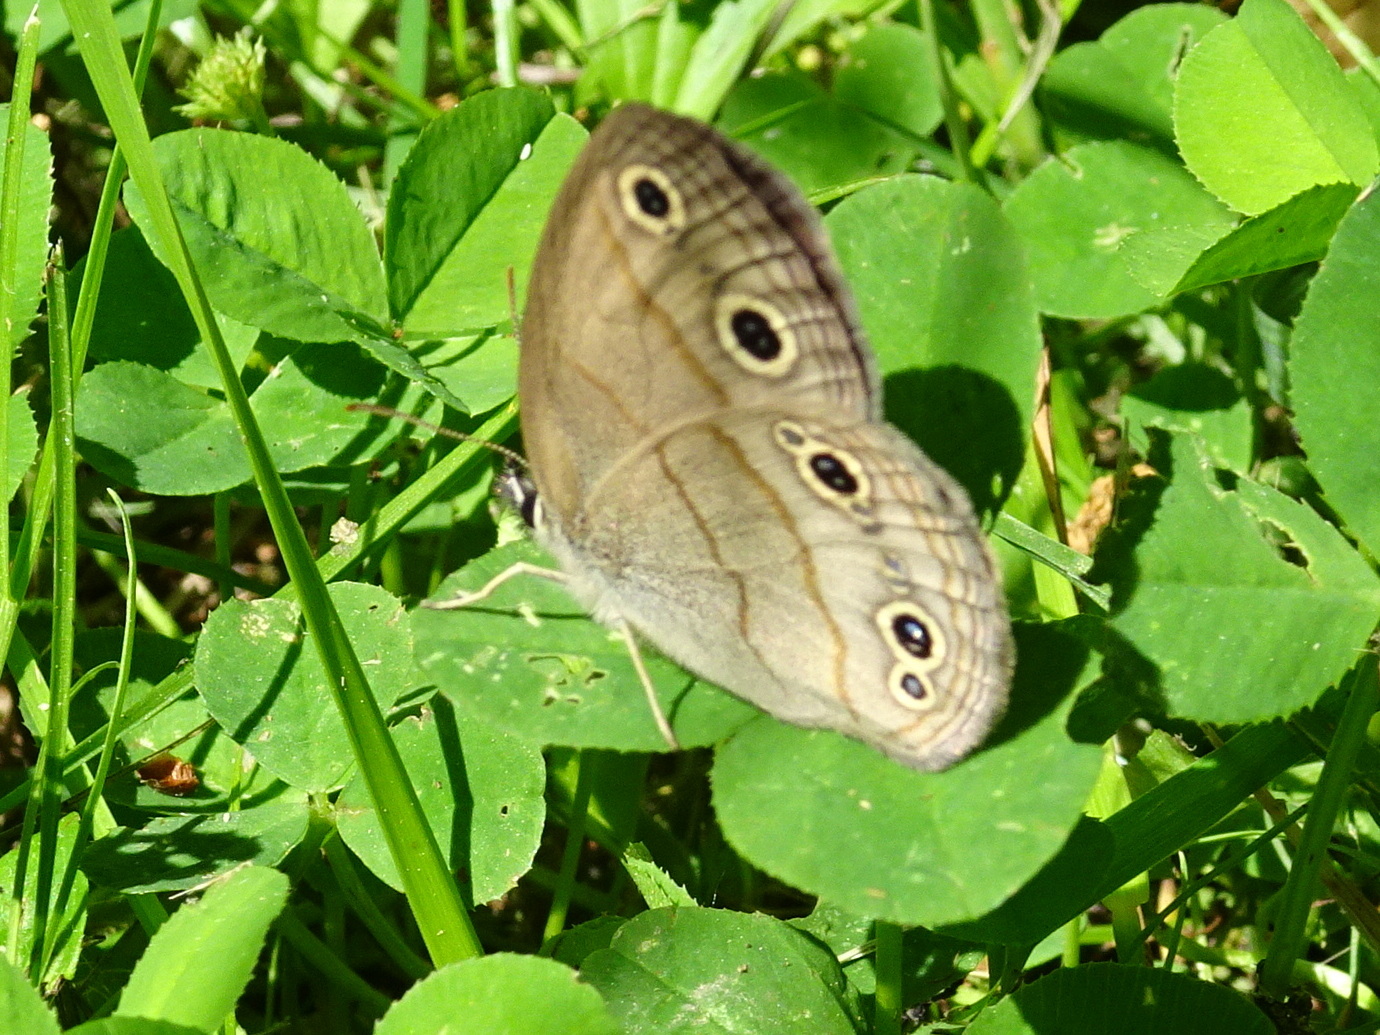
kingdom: Animalia
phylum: Arthropoda
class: Insecta
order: Lepidoptera
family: Nymphalidae
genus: Euptychia
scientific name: Euptychia cymela
